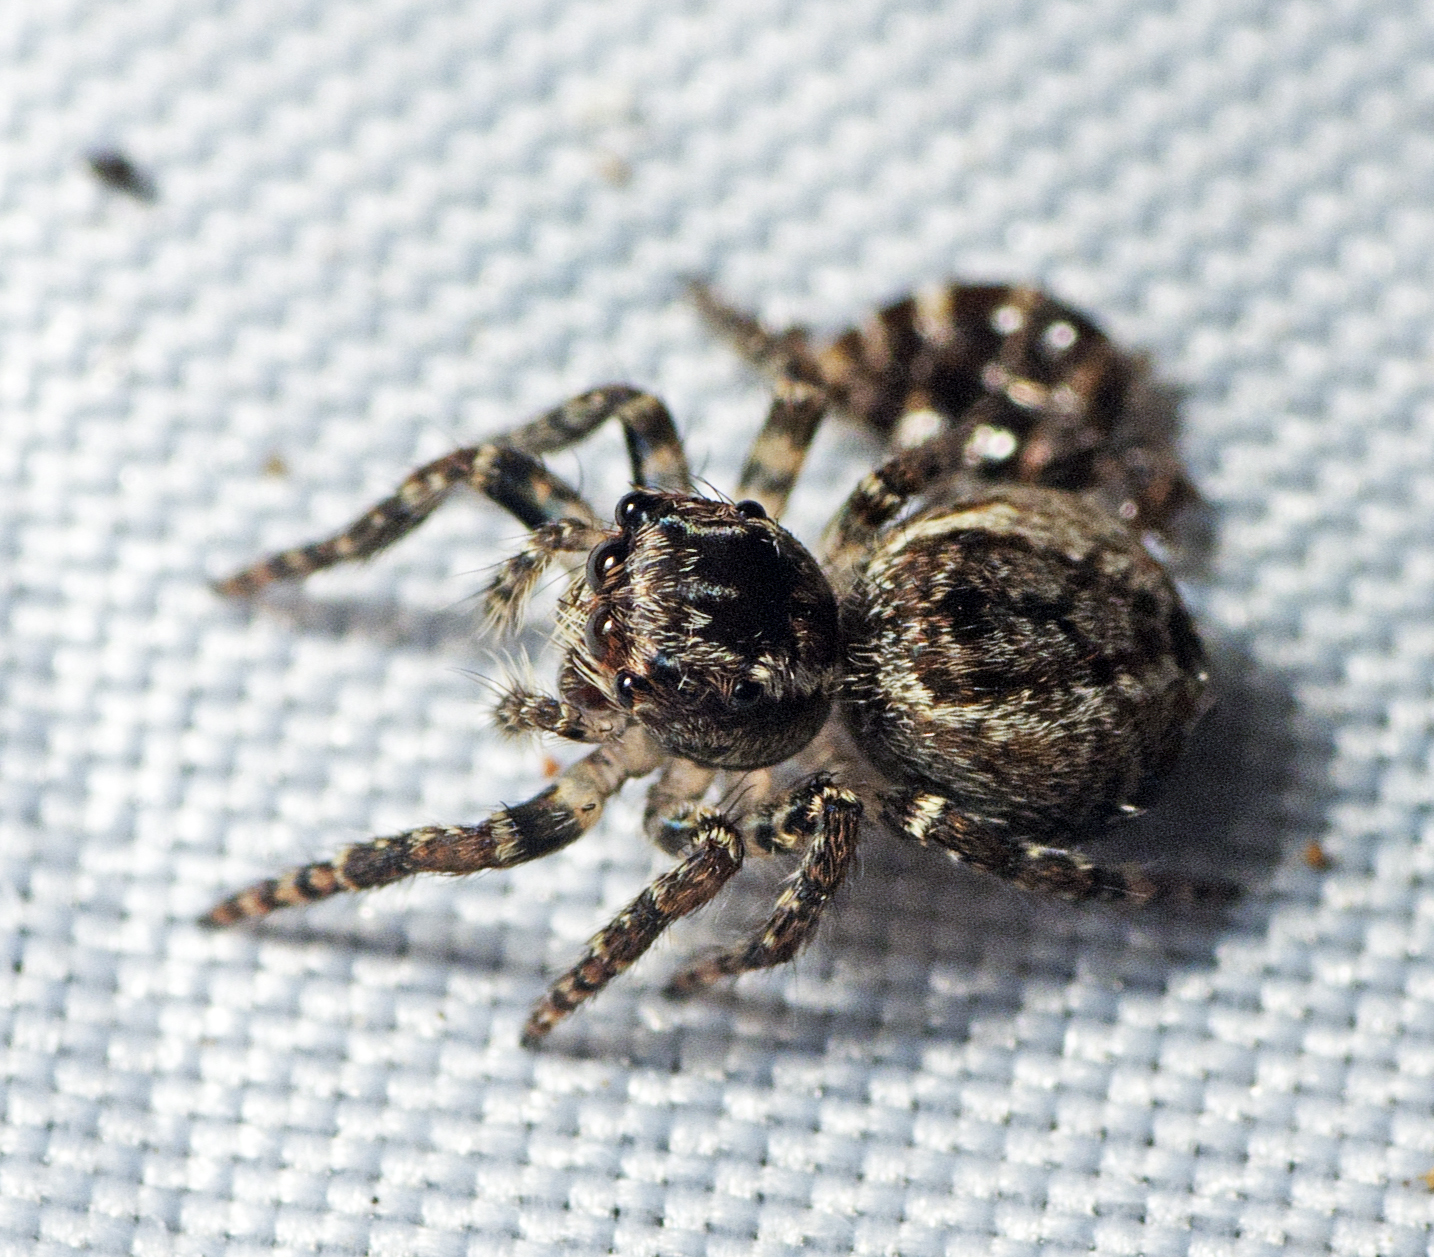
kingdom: Animalia
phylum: Arthropoda
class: Arachnida
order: Araneae
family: Salticidae
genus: Servaea
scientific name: Servaea villosa
